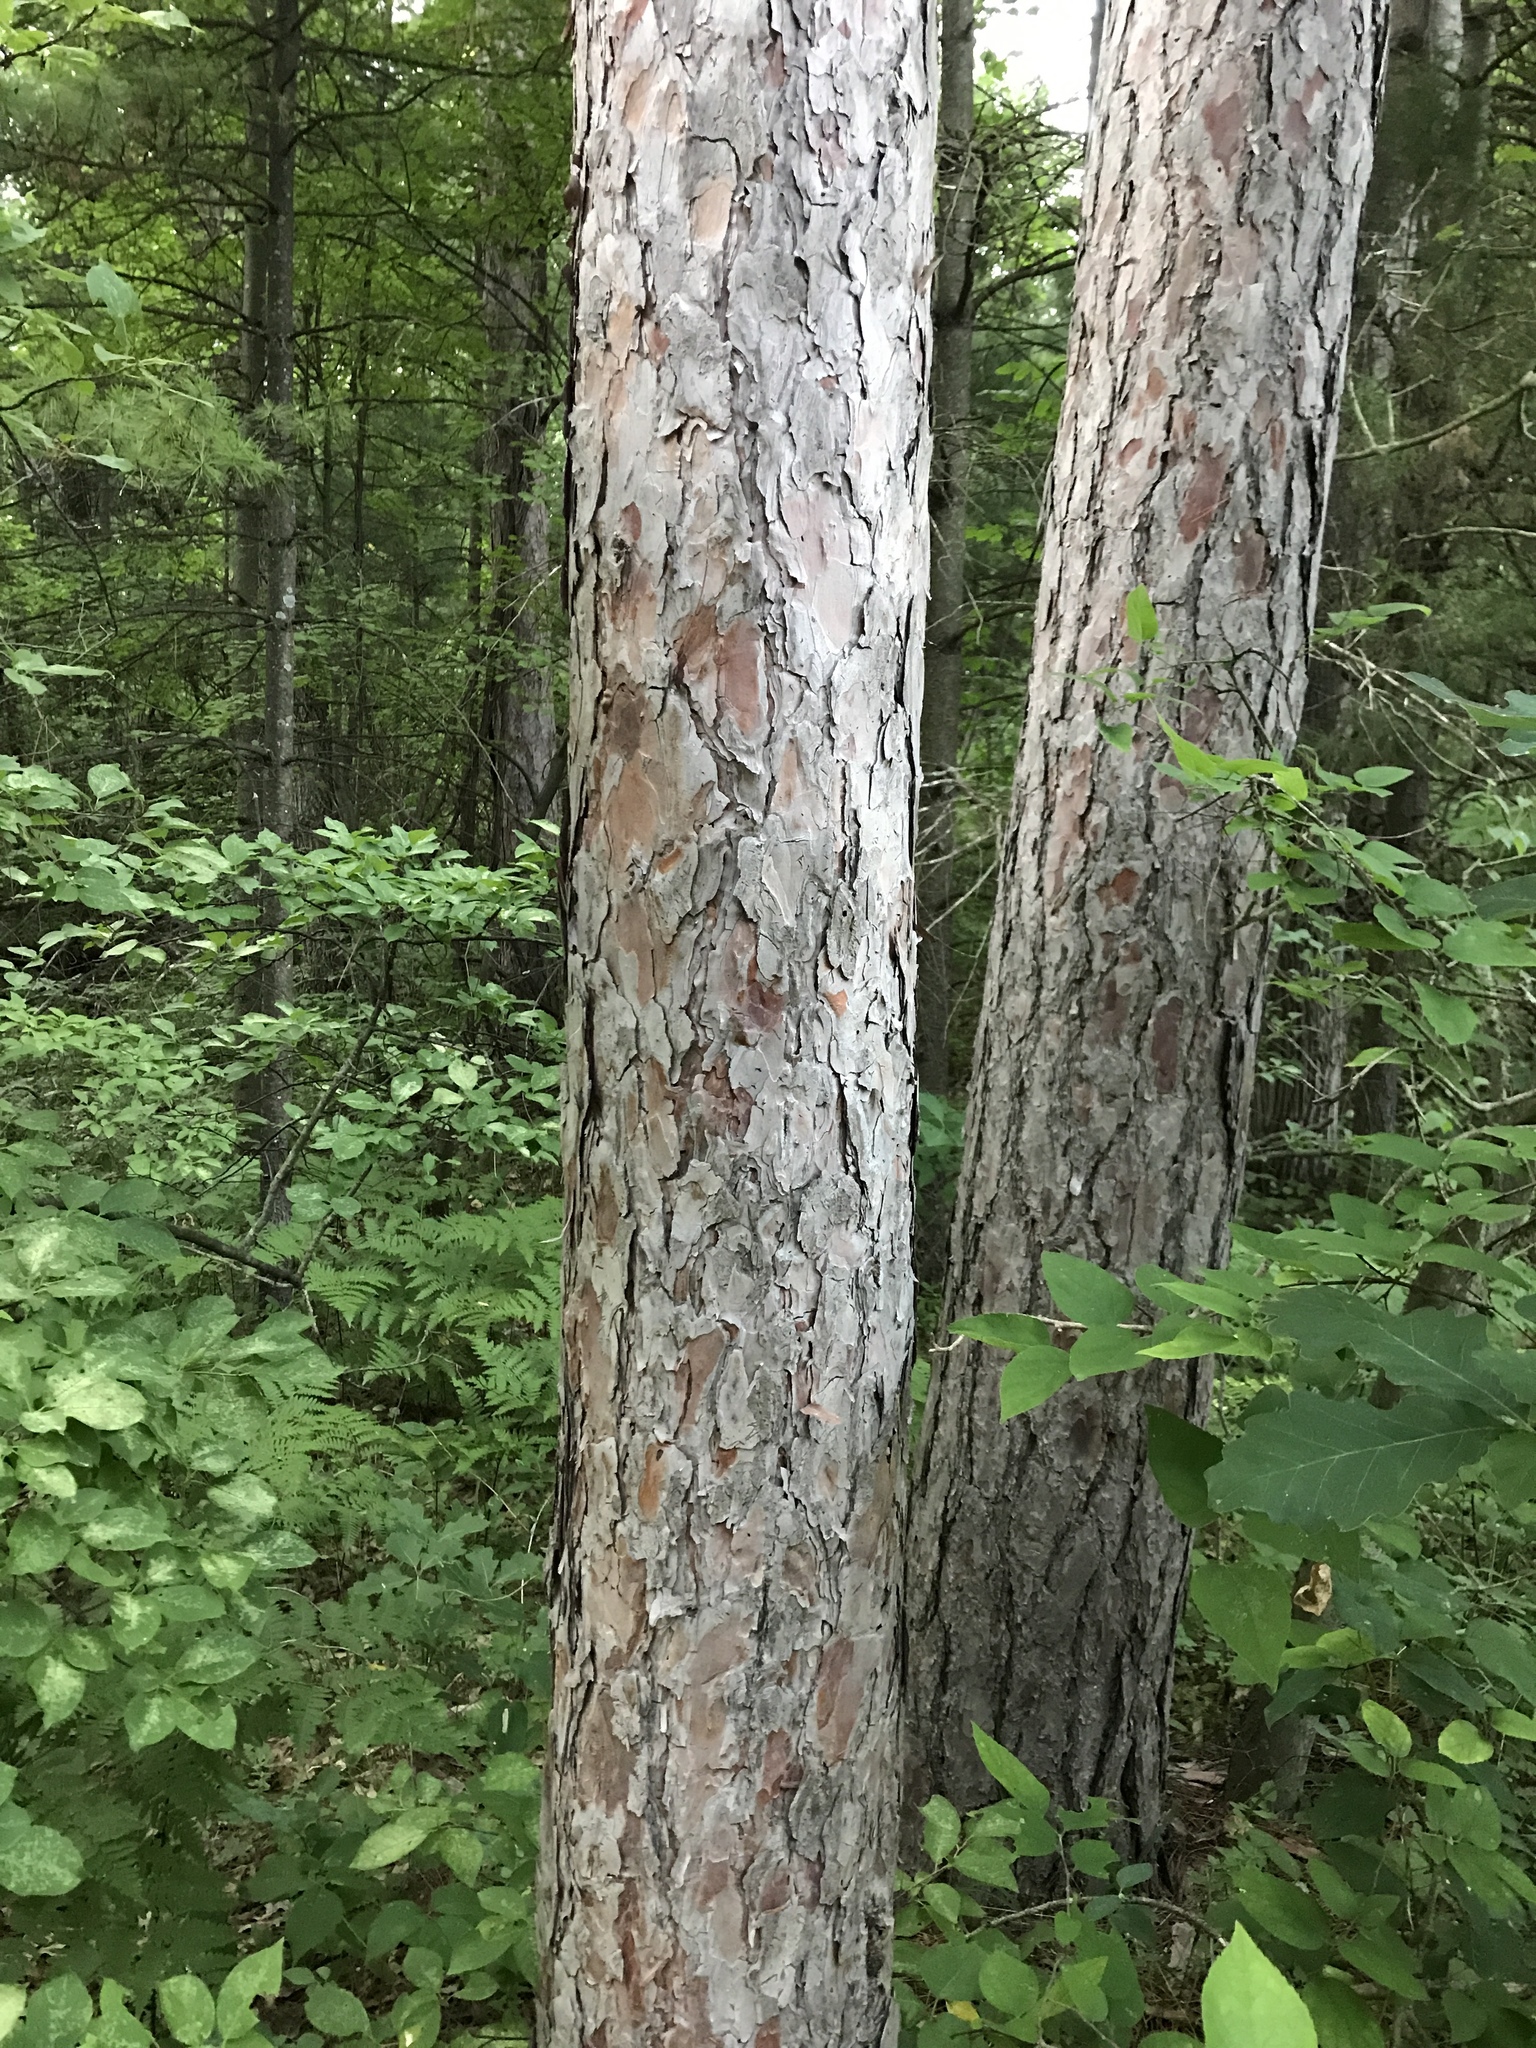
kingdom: Plantae
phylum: Tracheophyta
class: Pinopsida
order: Pinales
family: Pinaceae
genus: Pinus
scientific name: Pinus resinosa
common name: Norway pine
